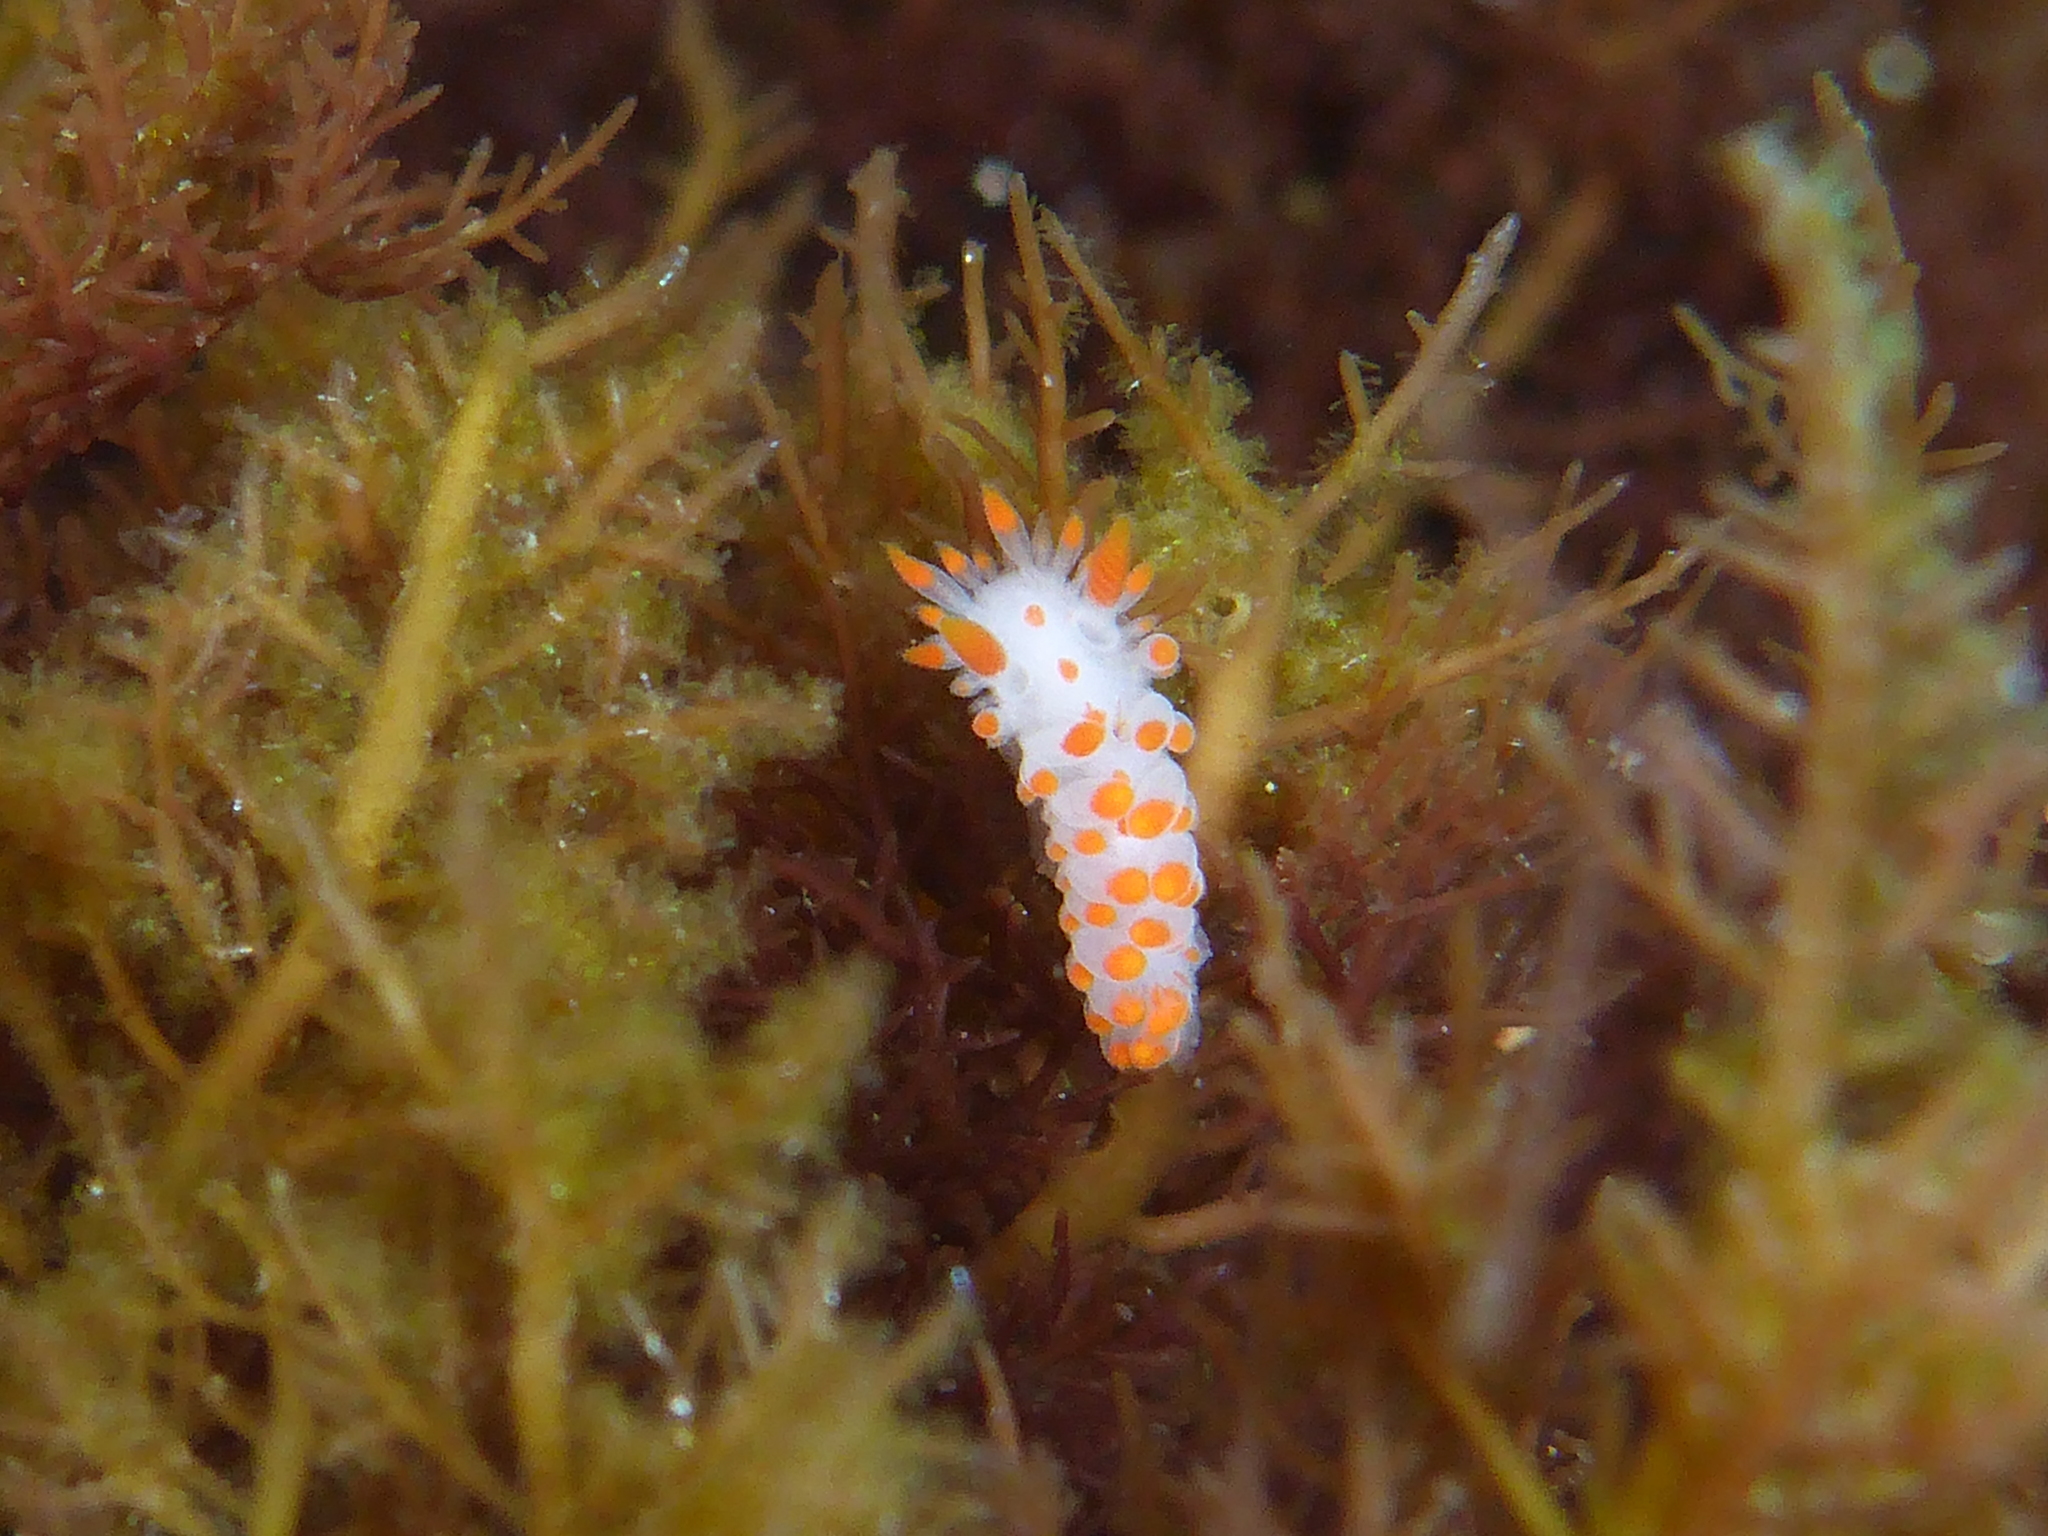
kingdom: Animalia
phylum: Mollusca
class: Gastropoda
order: Nudibranchia
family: Polyceridae
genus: Limacia
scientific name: Limacia mcdonaldi
